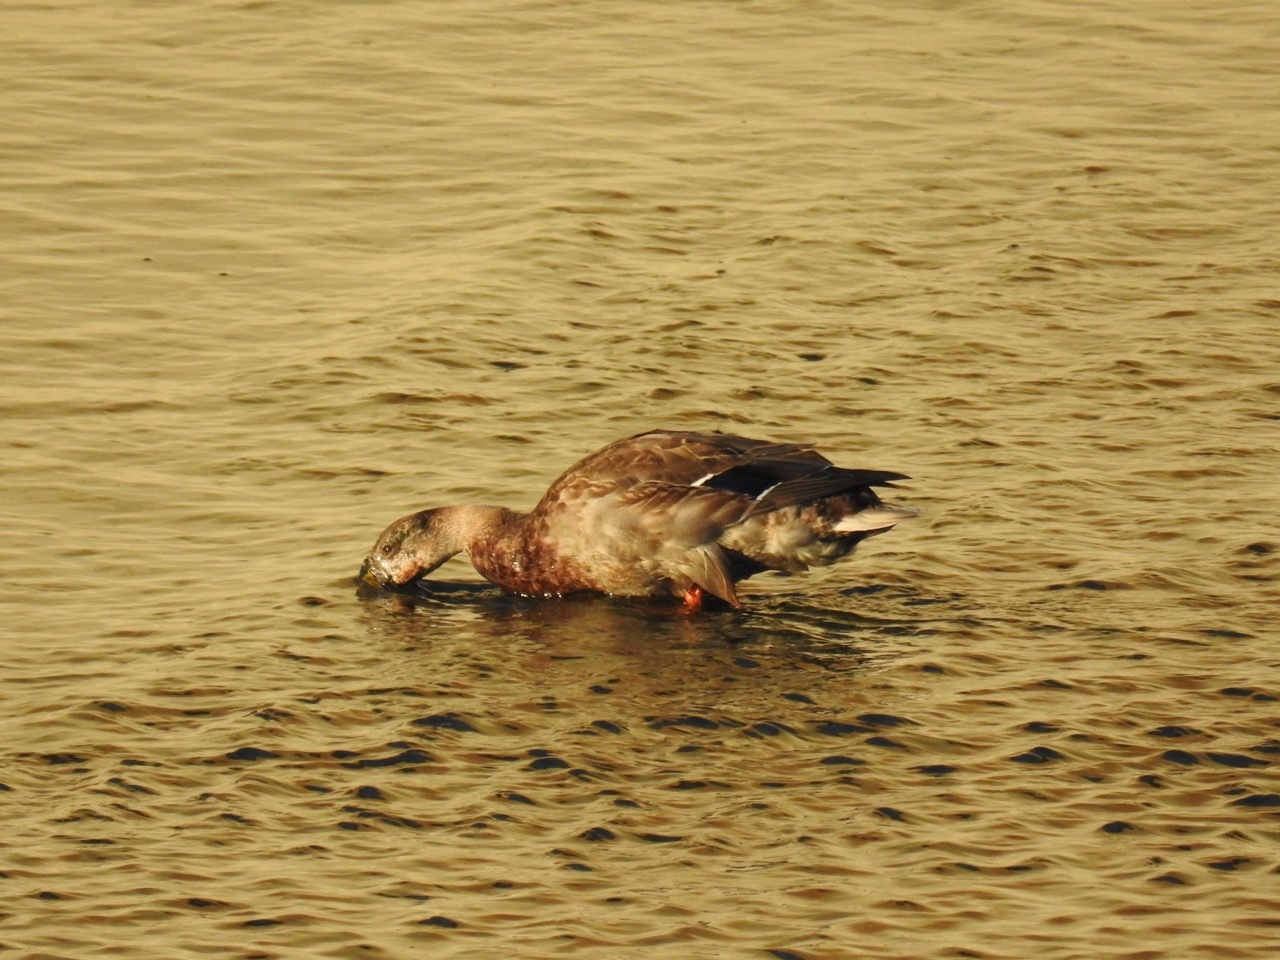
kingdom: Animalia
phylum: Chordata
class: Aves
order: Anseriformes
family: Anatidae
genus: Anas
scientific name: Anas platyrhynchos
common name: Mallard
